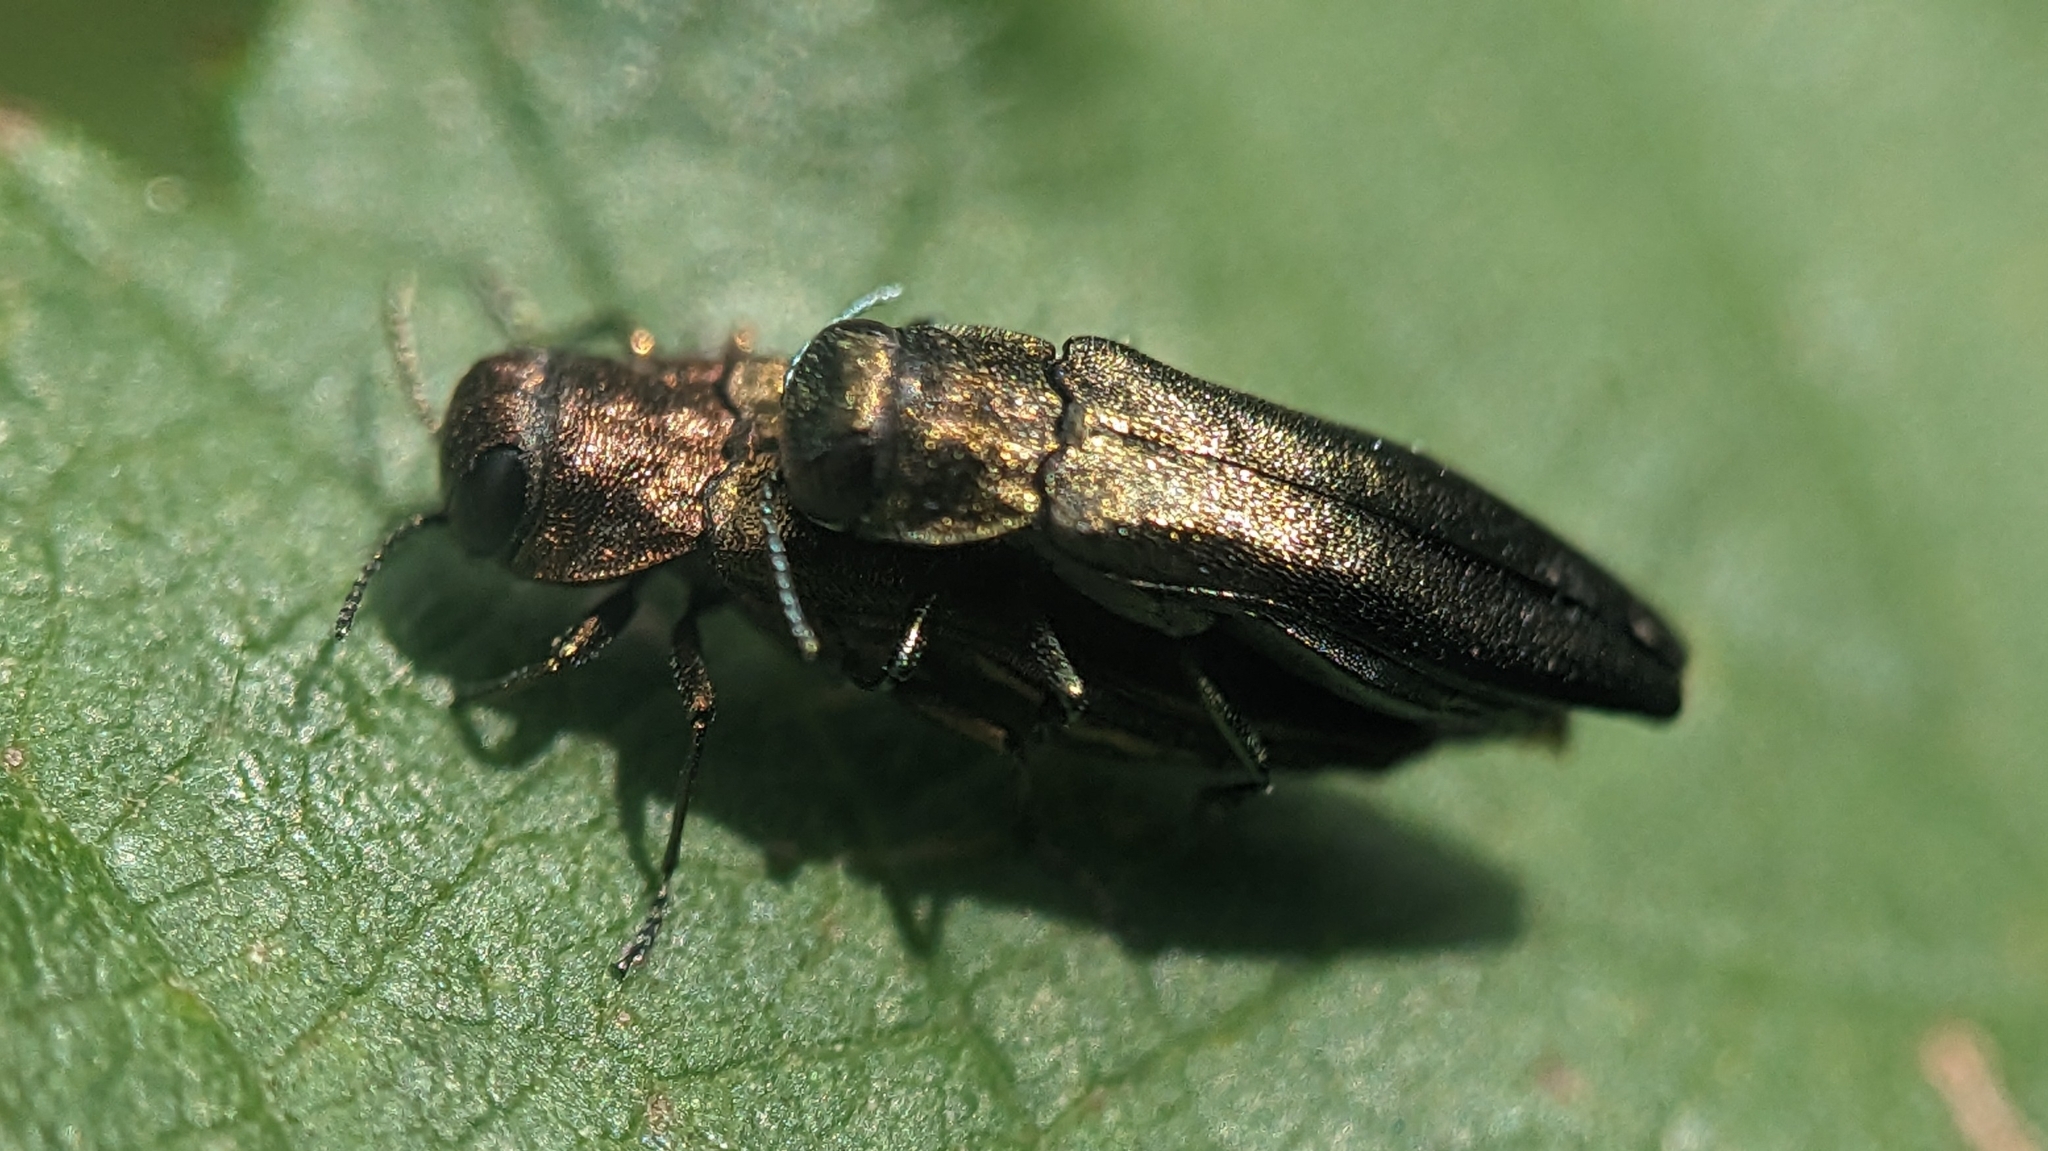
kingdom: Animalia
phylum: Arthropoda
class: Insecta
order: Coleoptera
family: Buprestidae
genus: Agrilus
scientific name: Agrilus cuprescens
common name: Rose stem girdler
